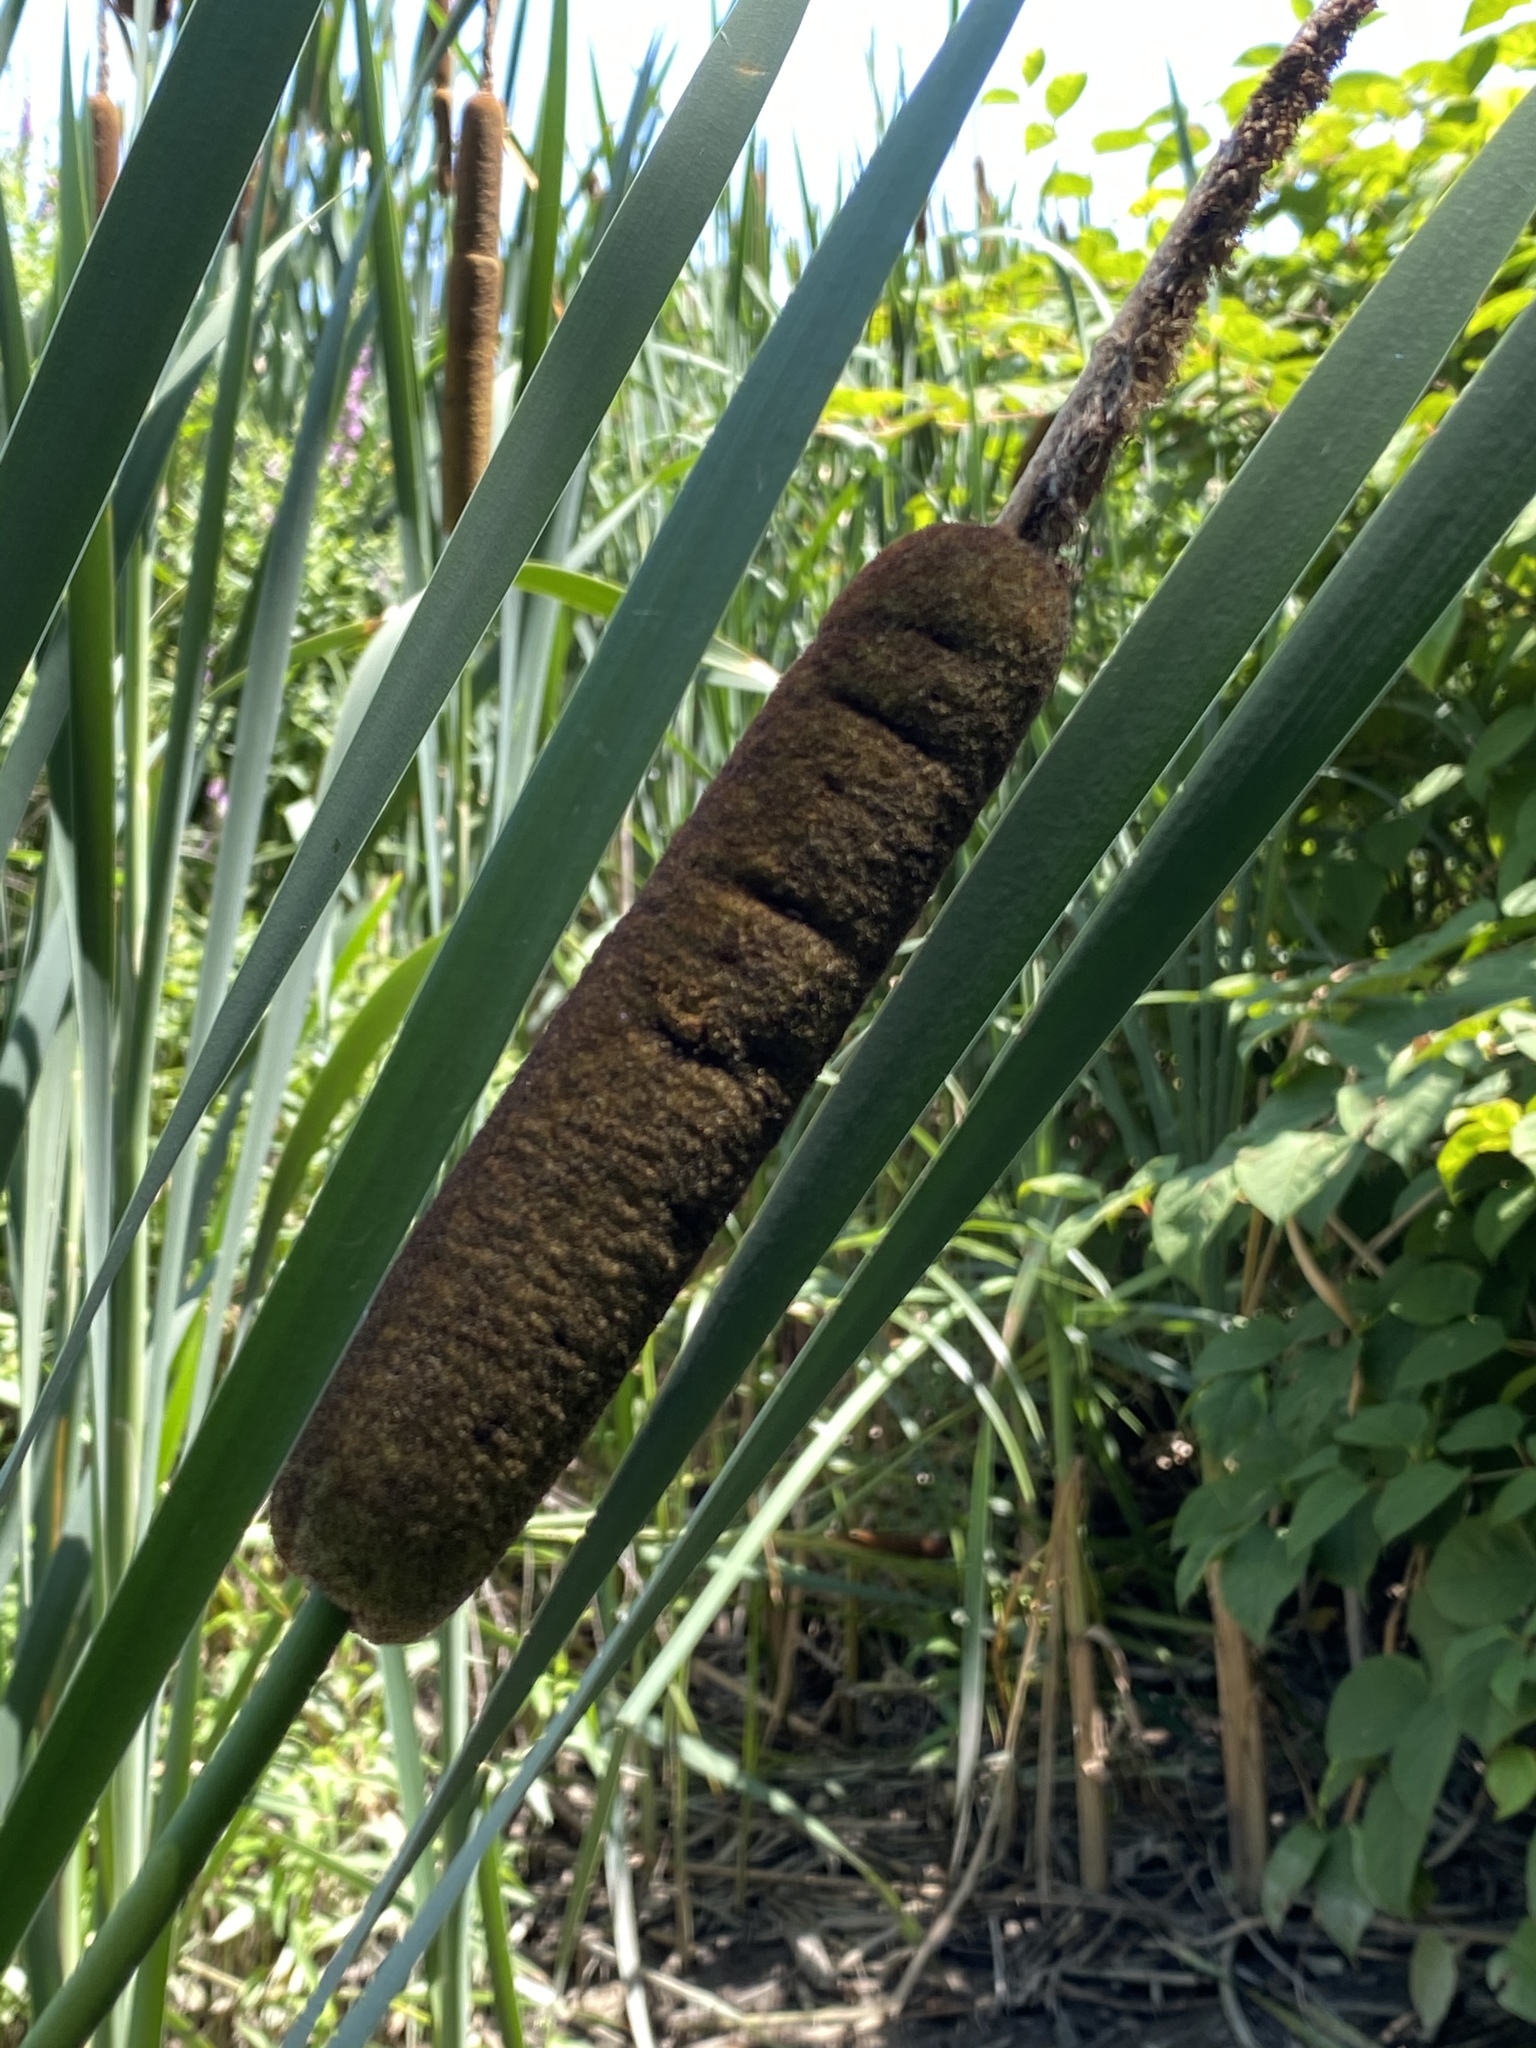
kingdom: Plantae
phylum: Tracheophyta
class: Liliopsida
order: Poales
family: Typhaceae
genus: Typha
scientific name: Typha latifolia
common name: Broadleaf cattail
